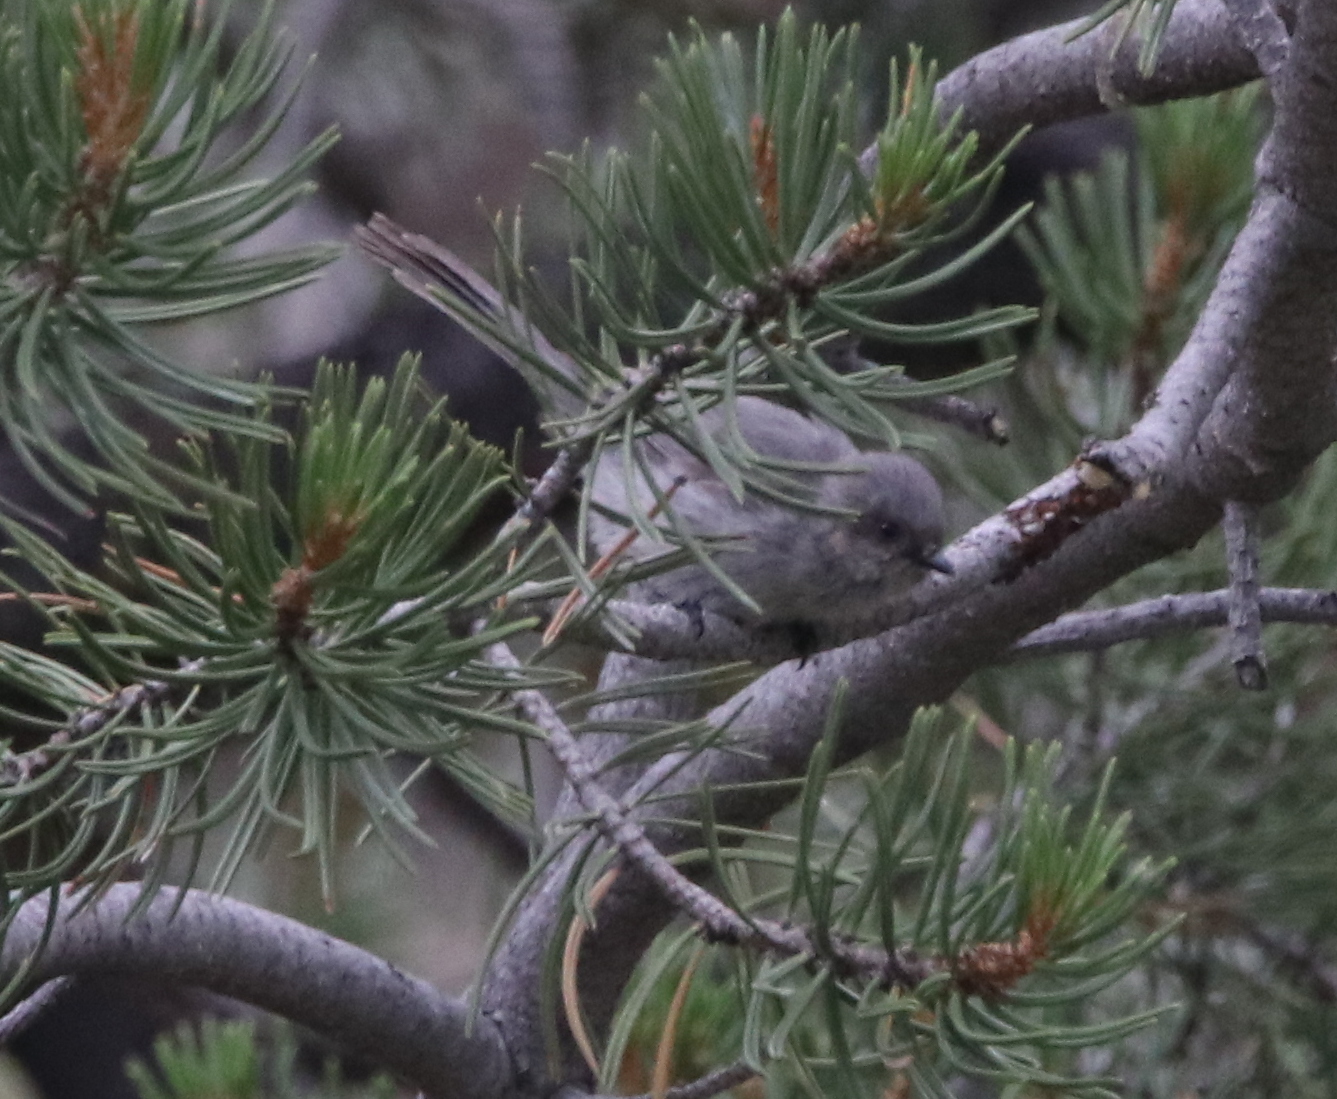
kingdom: Animalia
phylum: Chordata
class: Aves
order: Passeriformes
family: Aegithalidae
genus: Psaltriparus
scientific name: Psaltriparus minimus
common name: American bushtit
